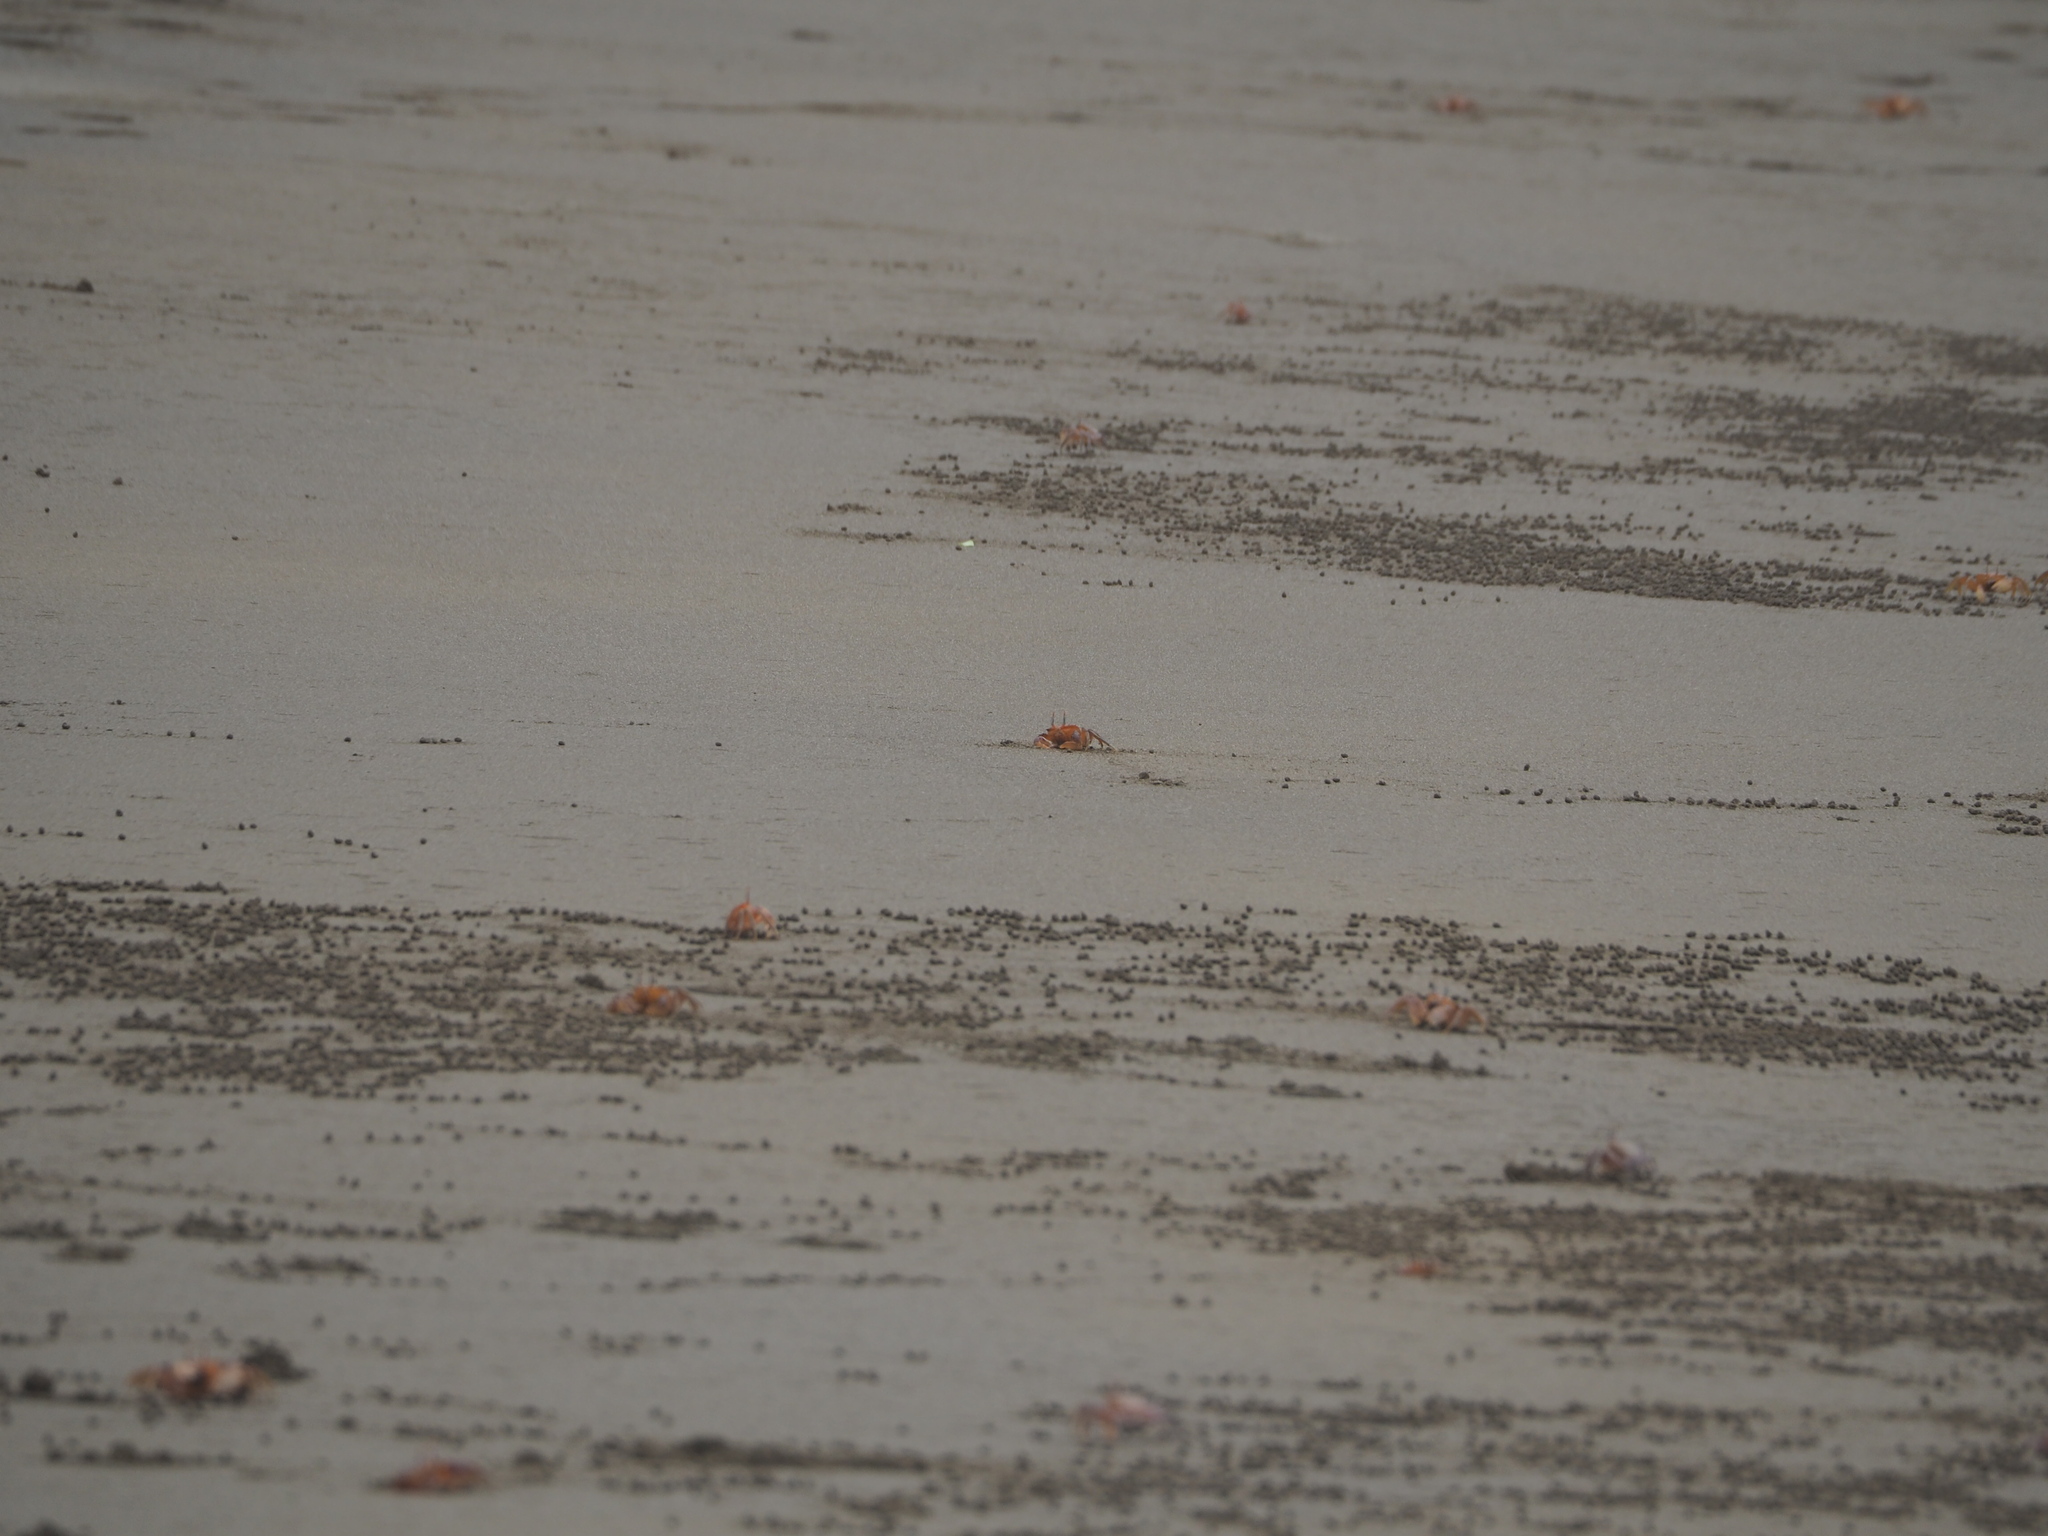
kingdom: Animalia
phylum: Arthropoda
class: Malacostraca
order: Decapoda
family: Ocypodidae
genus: Ocypode
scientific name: Ocypode gaudichaudii
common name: Pacific ghost crab
